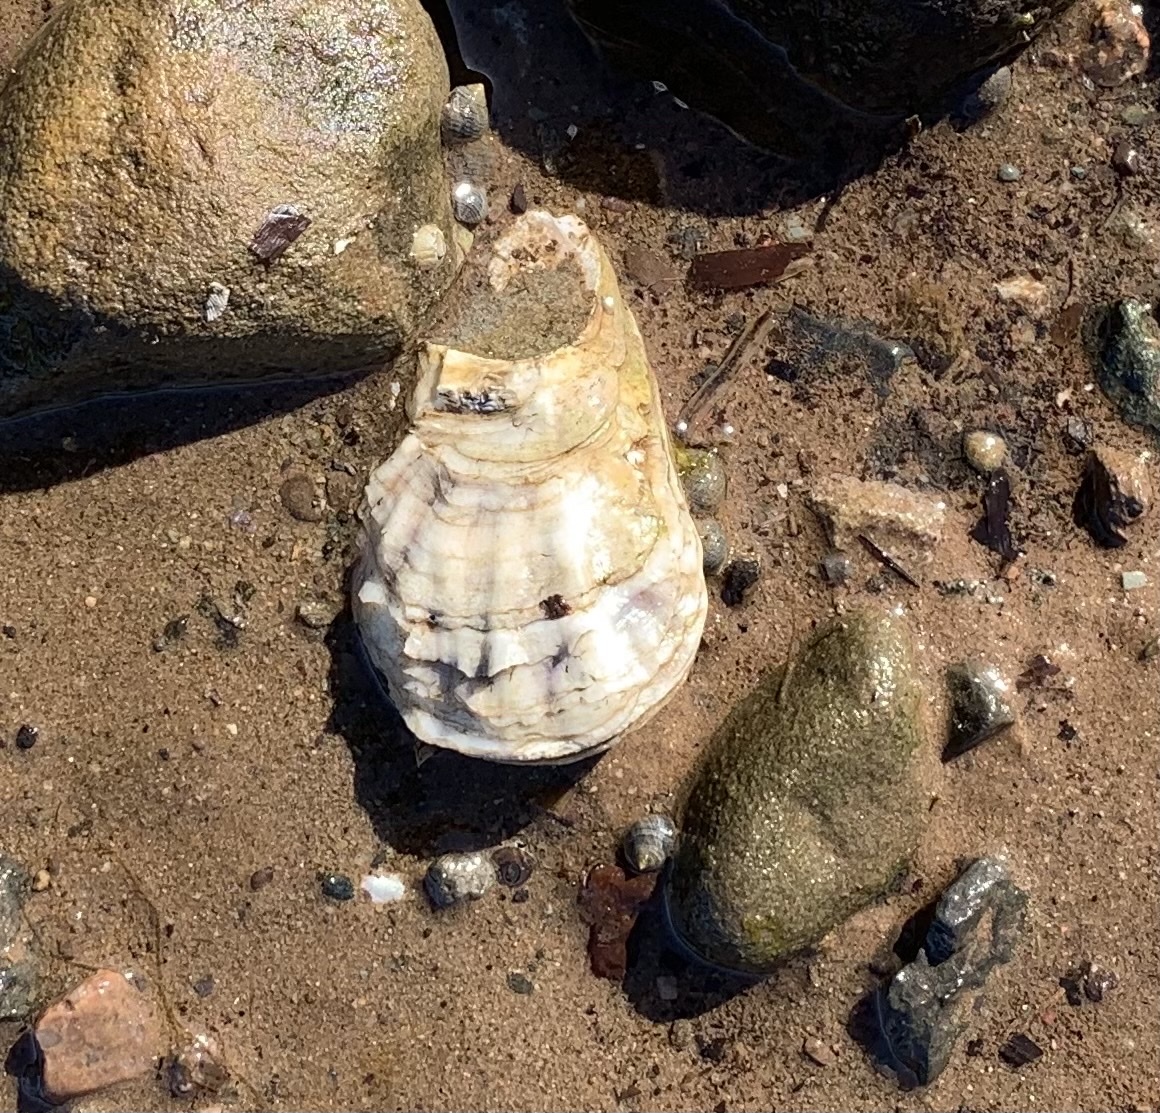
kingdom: Animalia
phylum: Mollusca
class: Bivalvia
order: Ostreida
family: Ostreidae
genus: Crassostrea
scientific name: Crassostrea virginica
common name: American oyster
